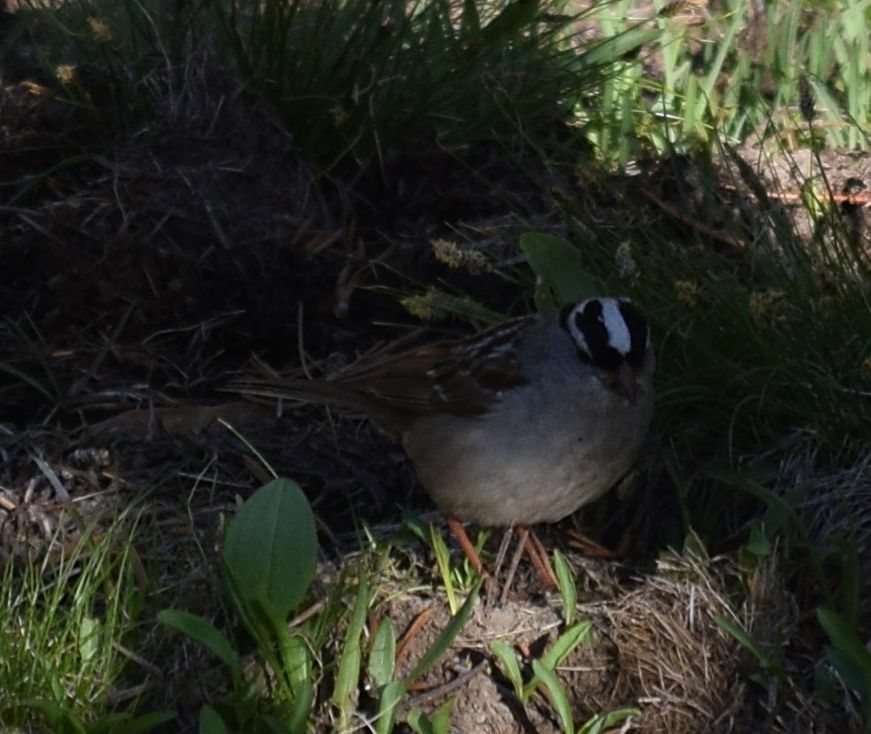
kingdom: Animalia
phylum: Chordata
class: Aves
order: Passeriformes
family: Passerellidae
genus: Zonotrichia
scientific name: Zonotrichia leucophrys
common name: White-crowned sparrow
